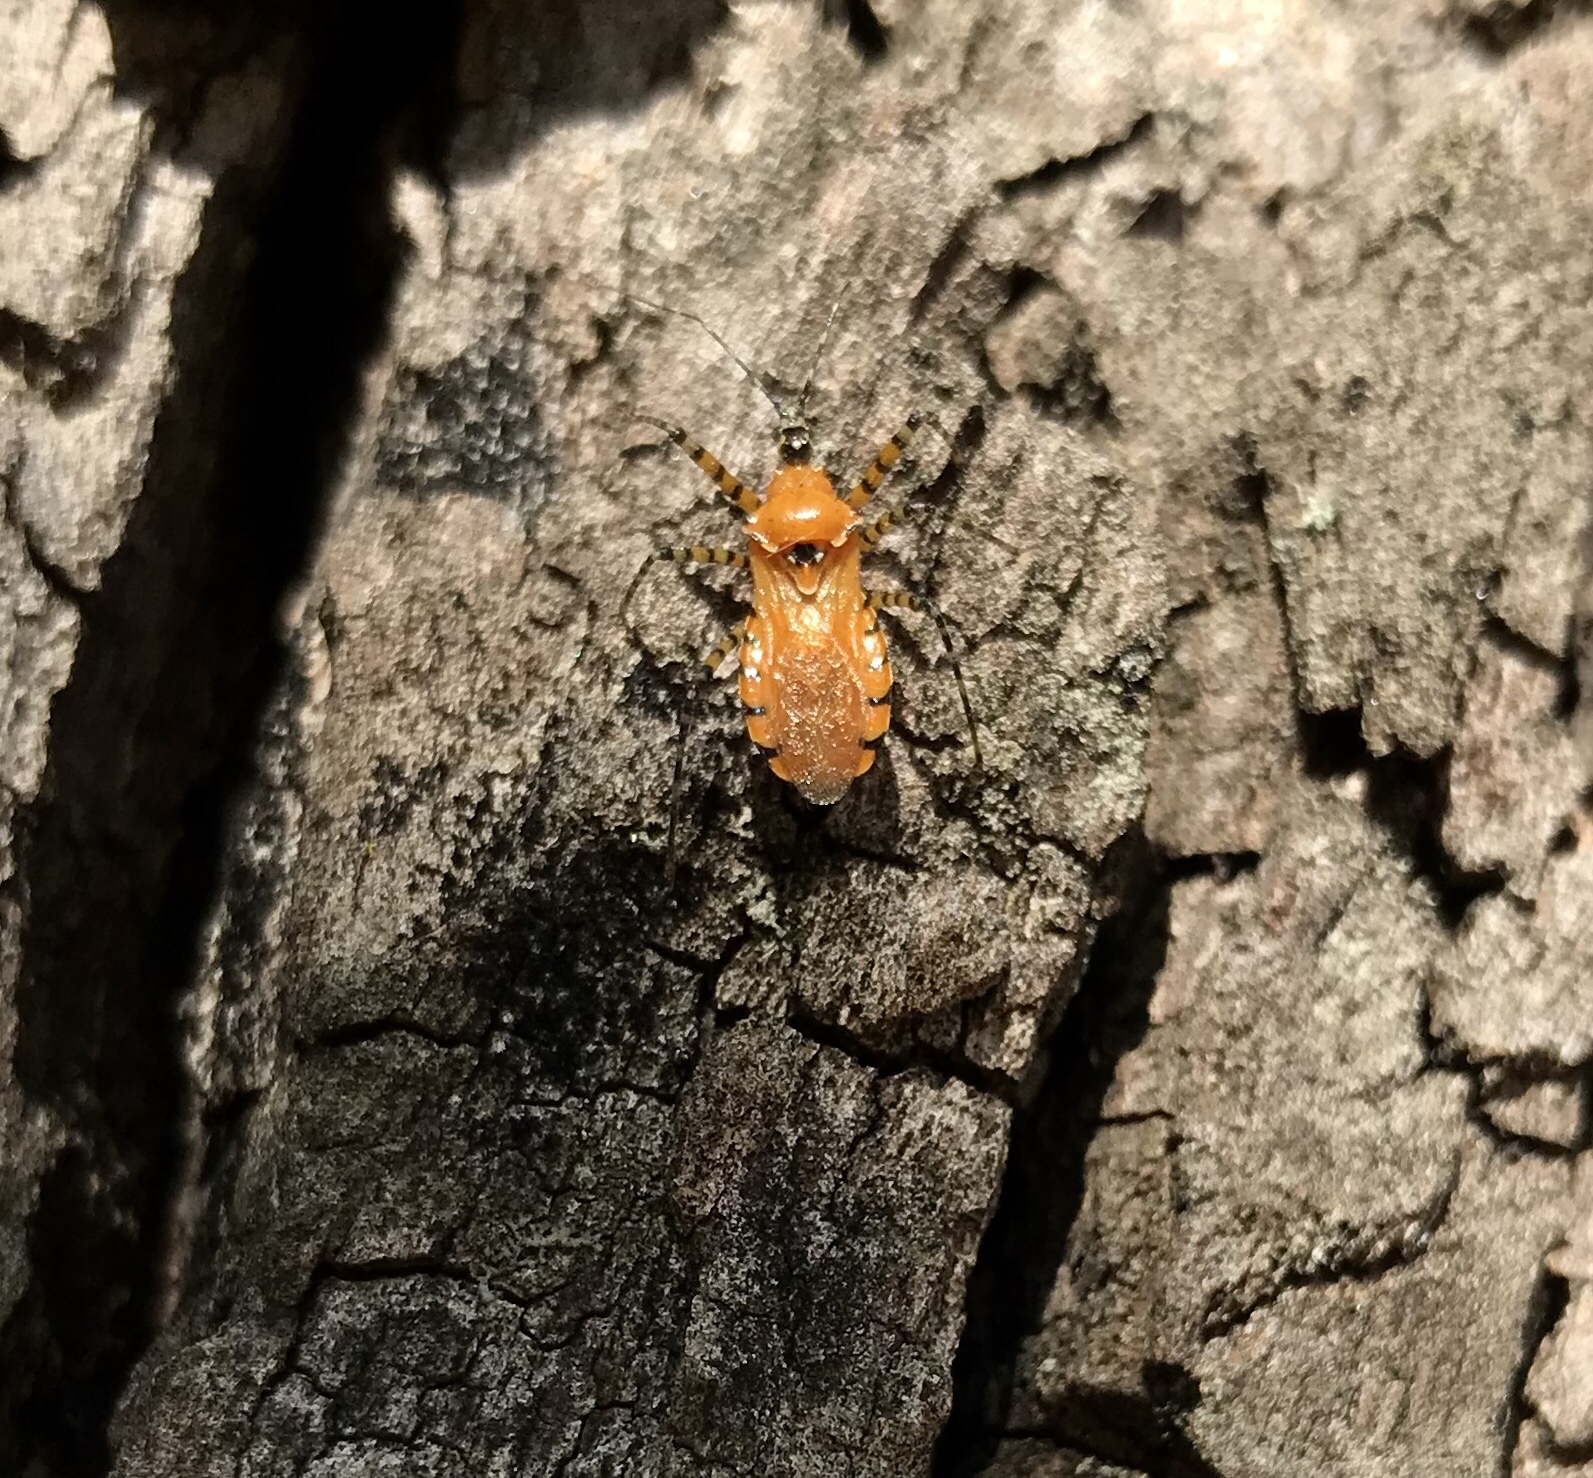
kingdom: Animalia
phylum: Arthropoda
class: Insecta
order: Hemiptera
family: Reduviidae
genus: Pselliopus
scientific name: Pselliopus barberi
